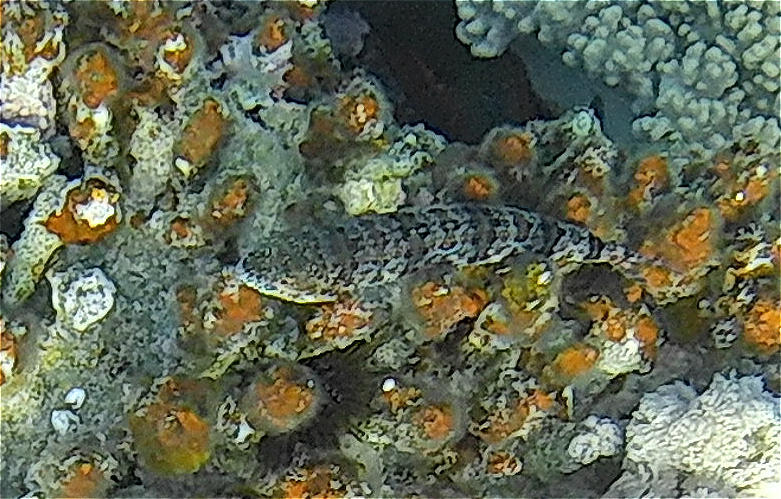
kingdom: Animalia
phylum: Chordata
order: Aulopiformes
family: Synodontidae
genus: Synodus
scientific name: Synodus dermatogenys
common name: Banded lizardfish
